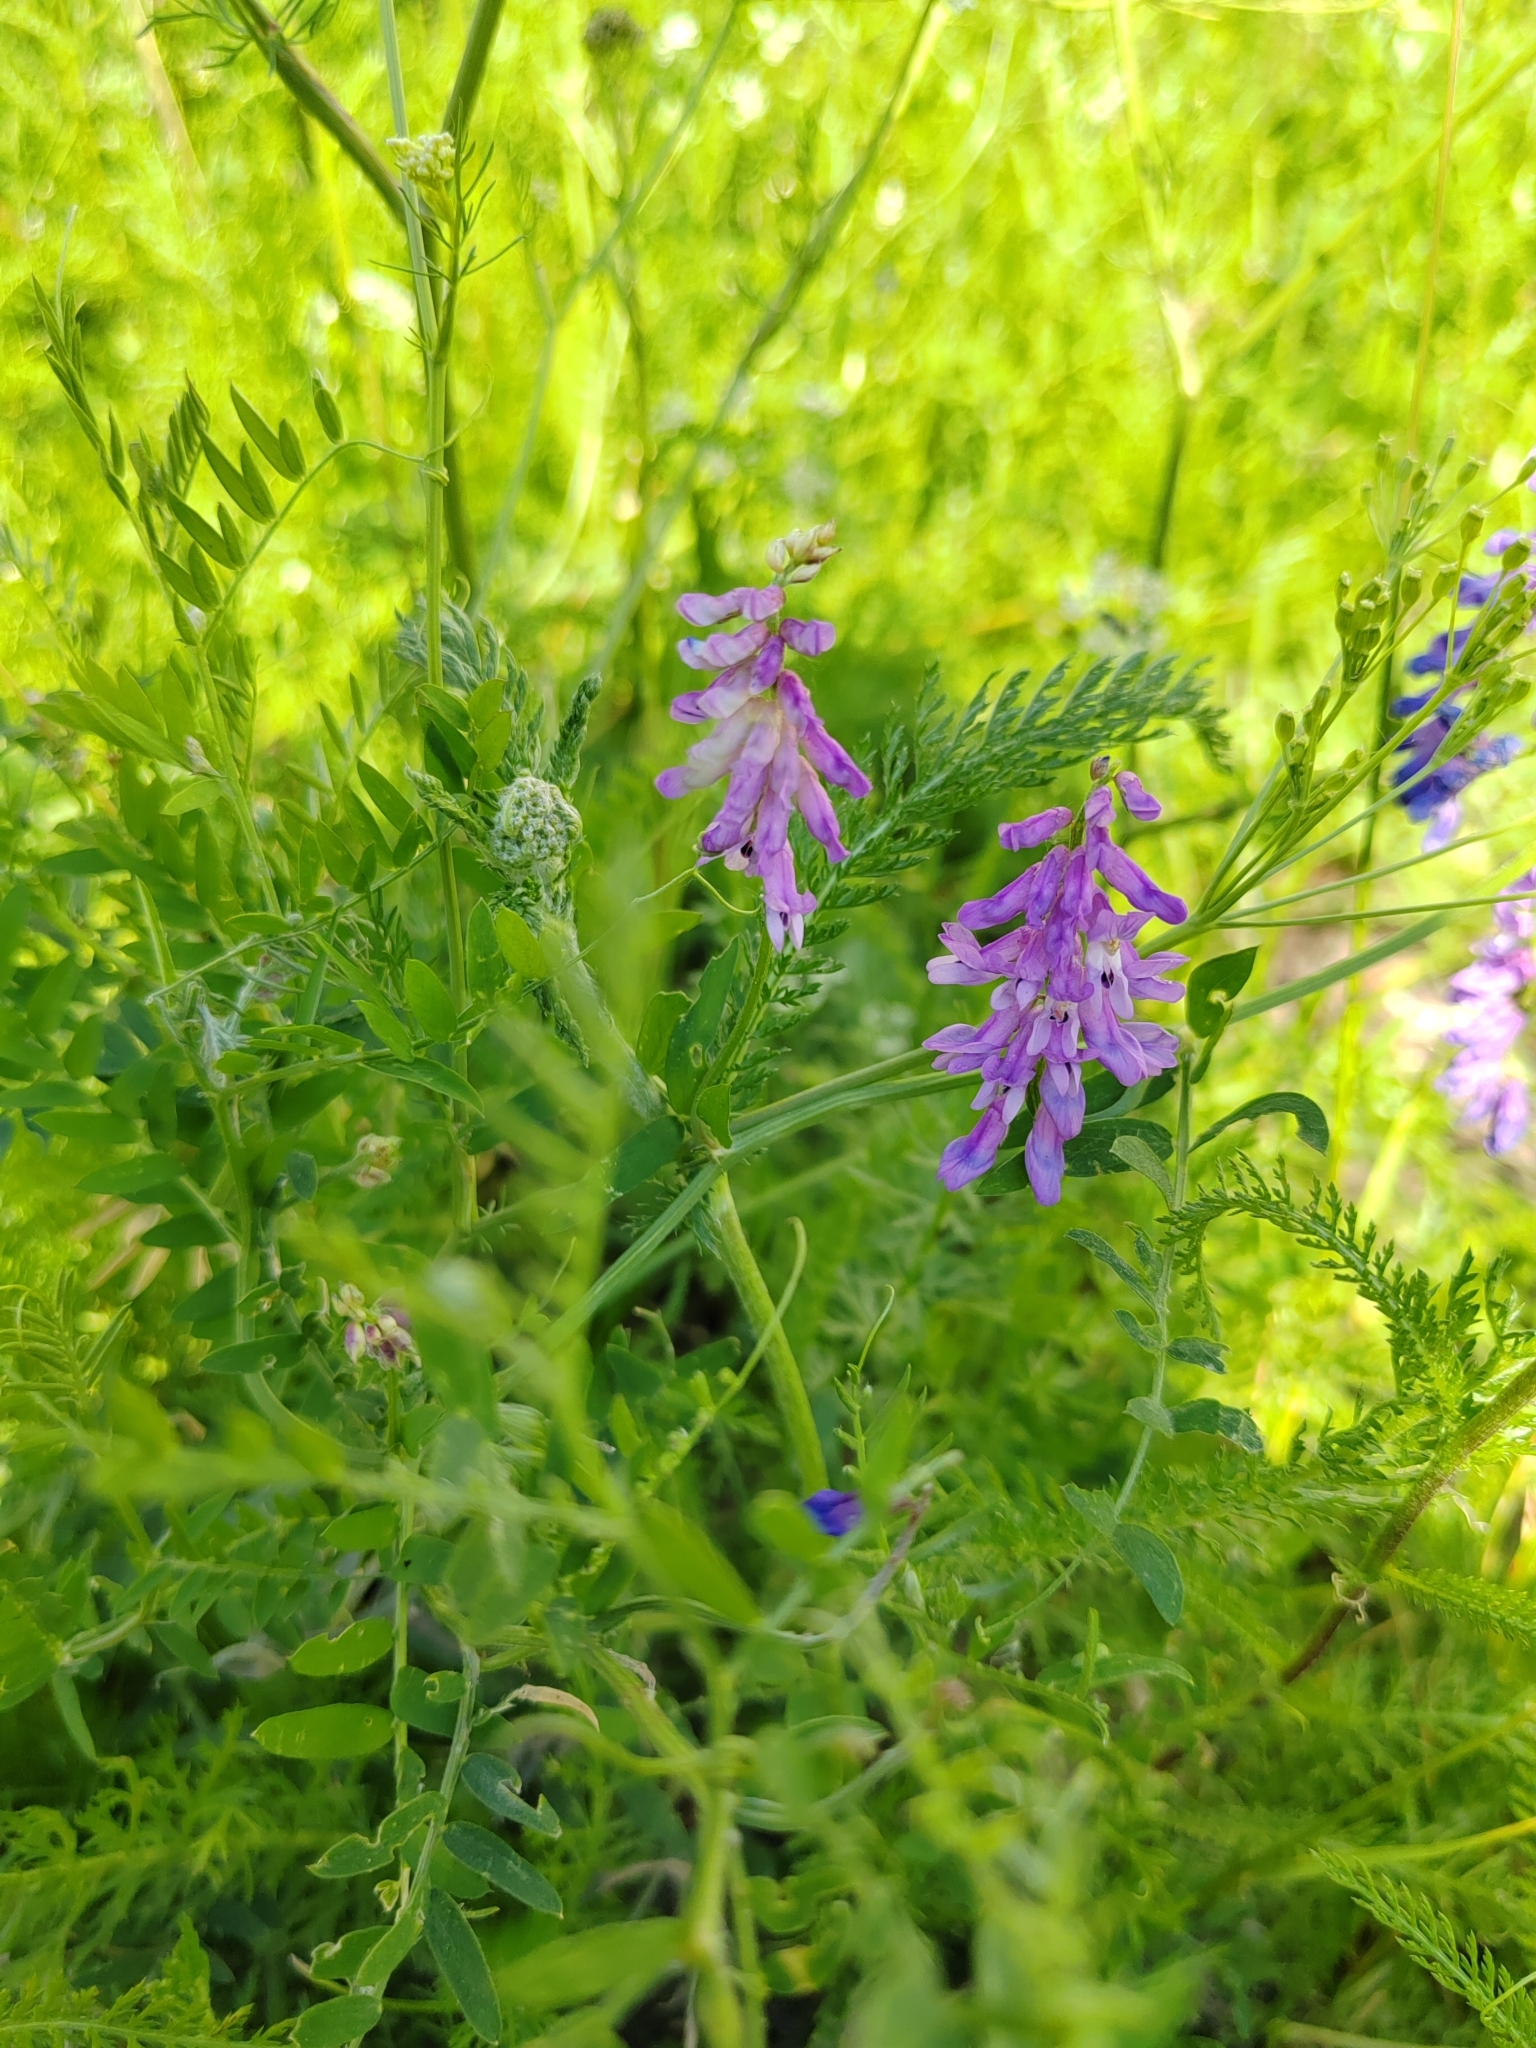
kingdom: Plantae
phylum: Tracheophyta
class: Magnoliopsida
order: Fabales
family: Fabaceae
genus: Vicia
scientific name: Vicia cracca
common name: Bird vetch
